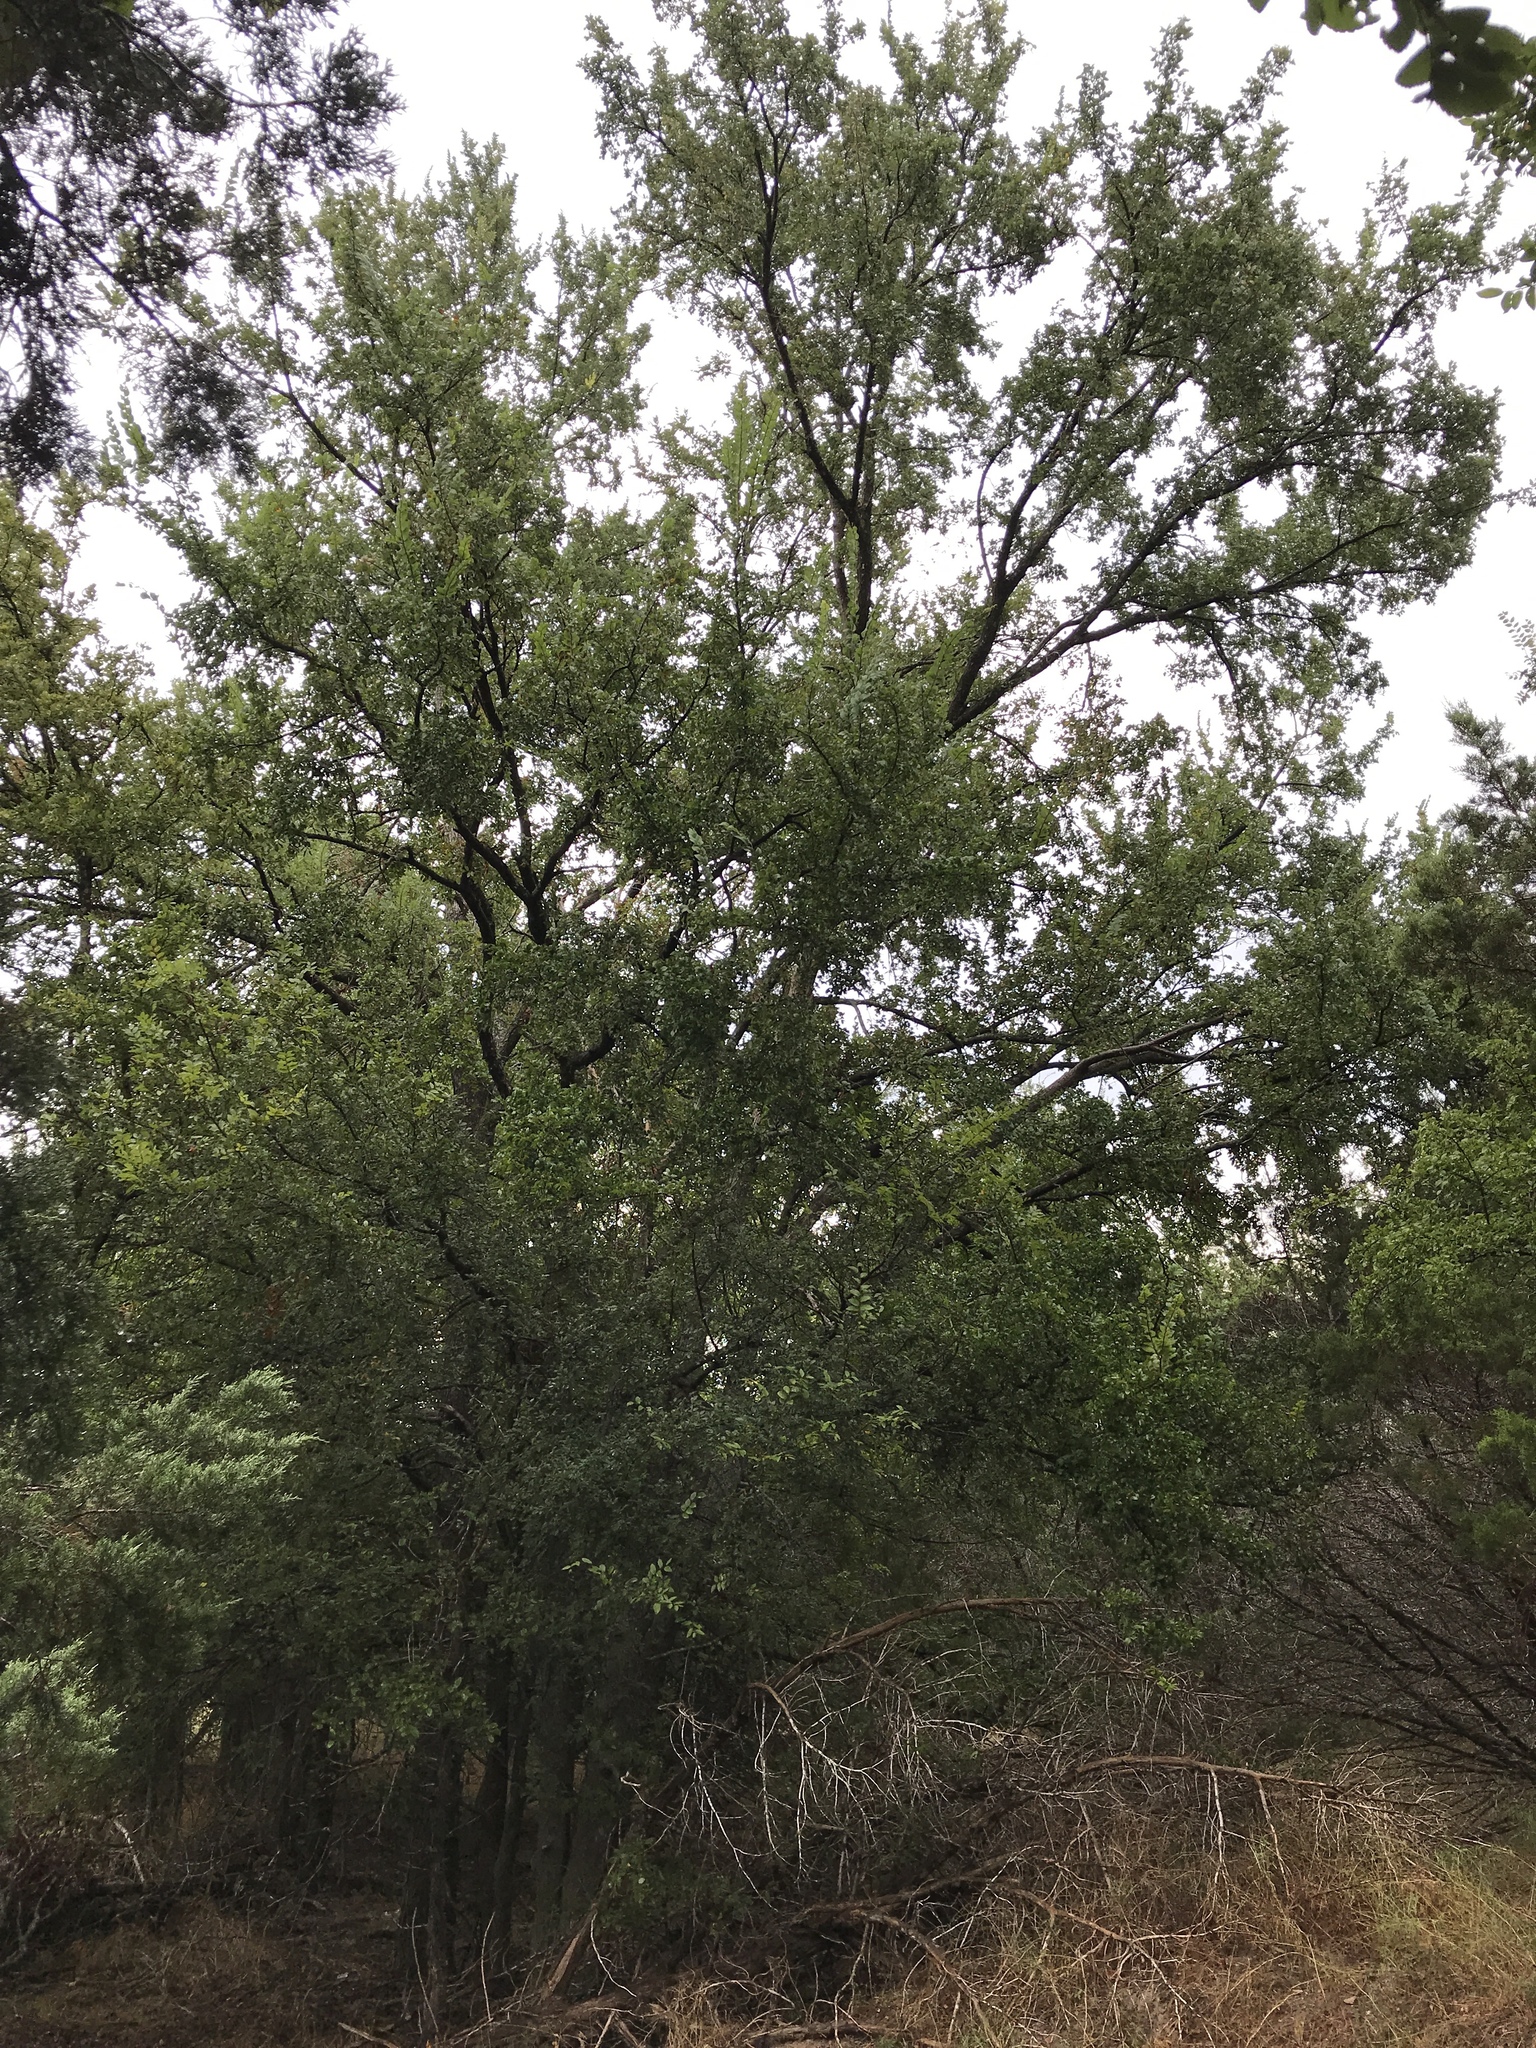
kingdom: Plantae
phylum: Tracheophyta
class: Magnoliopsida
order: Rosales
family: Ulmaceae
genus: Ulmus
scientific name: Ulmus crassifolia
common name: Basket elm
